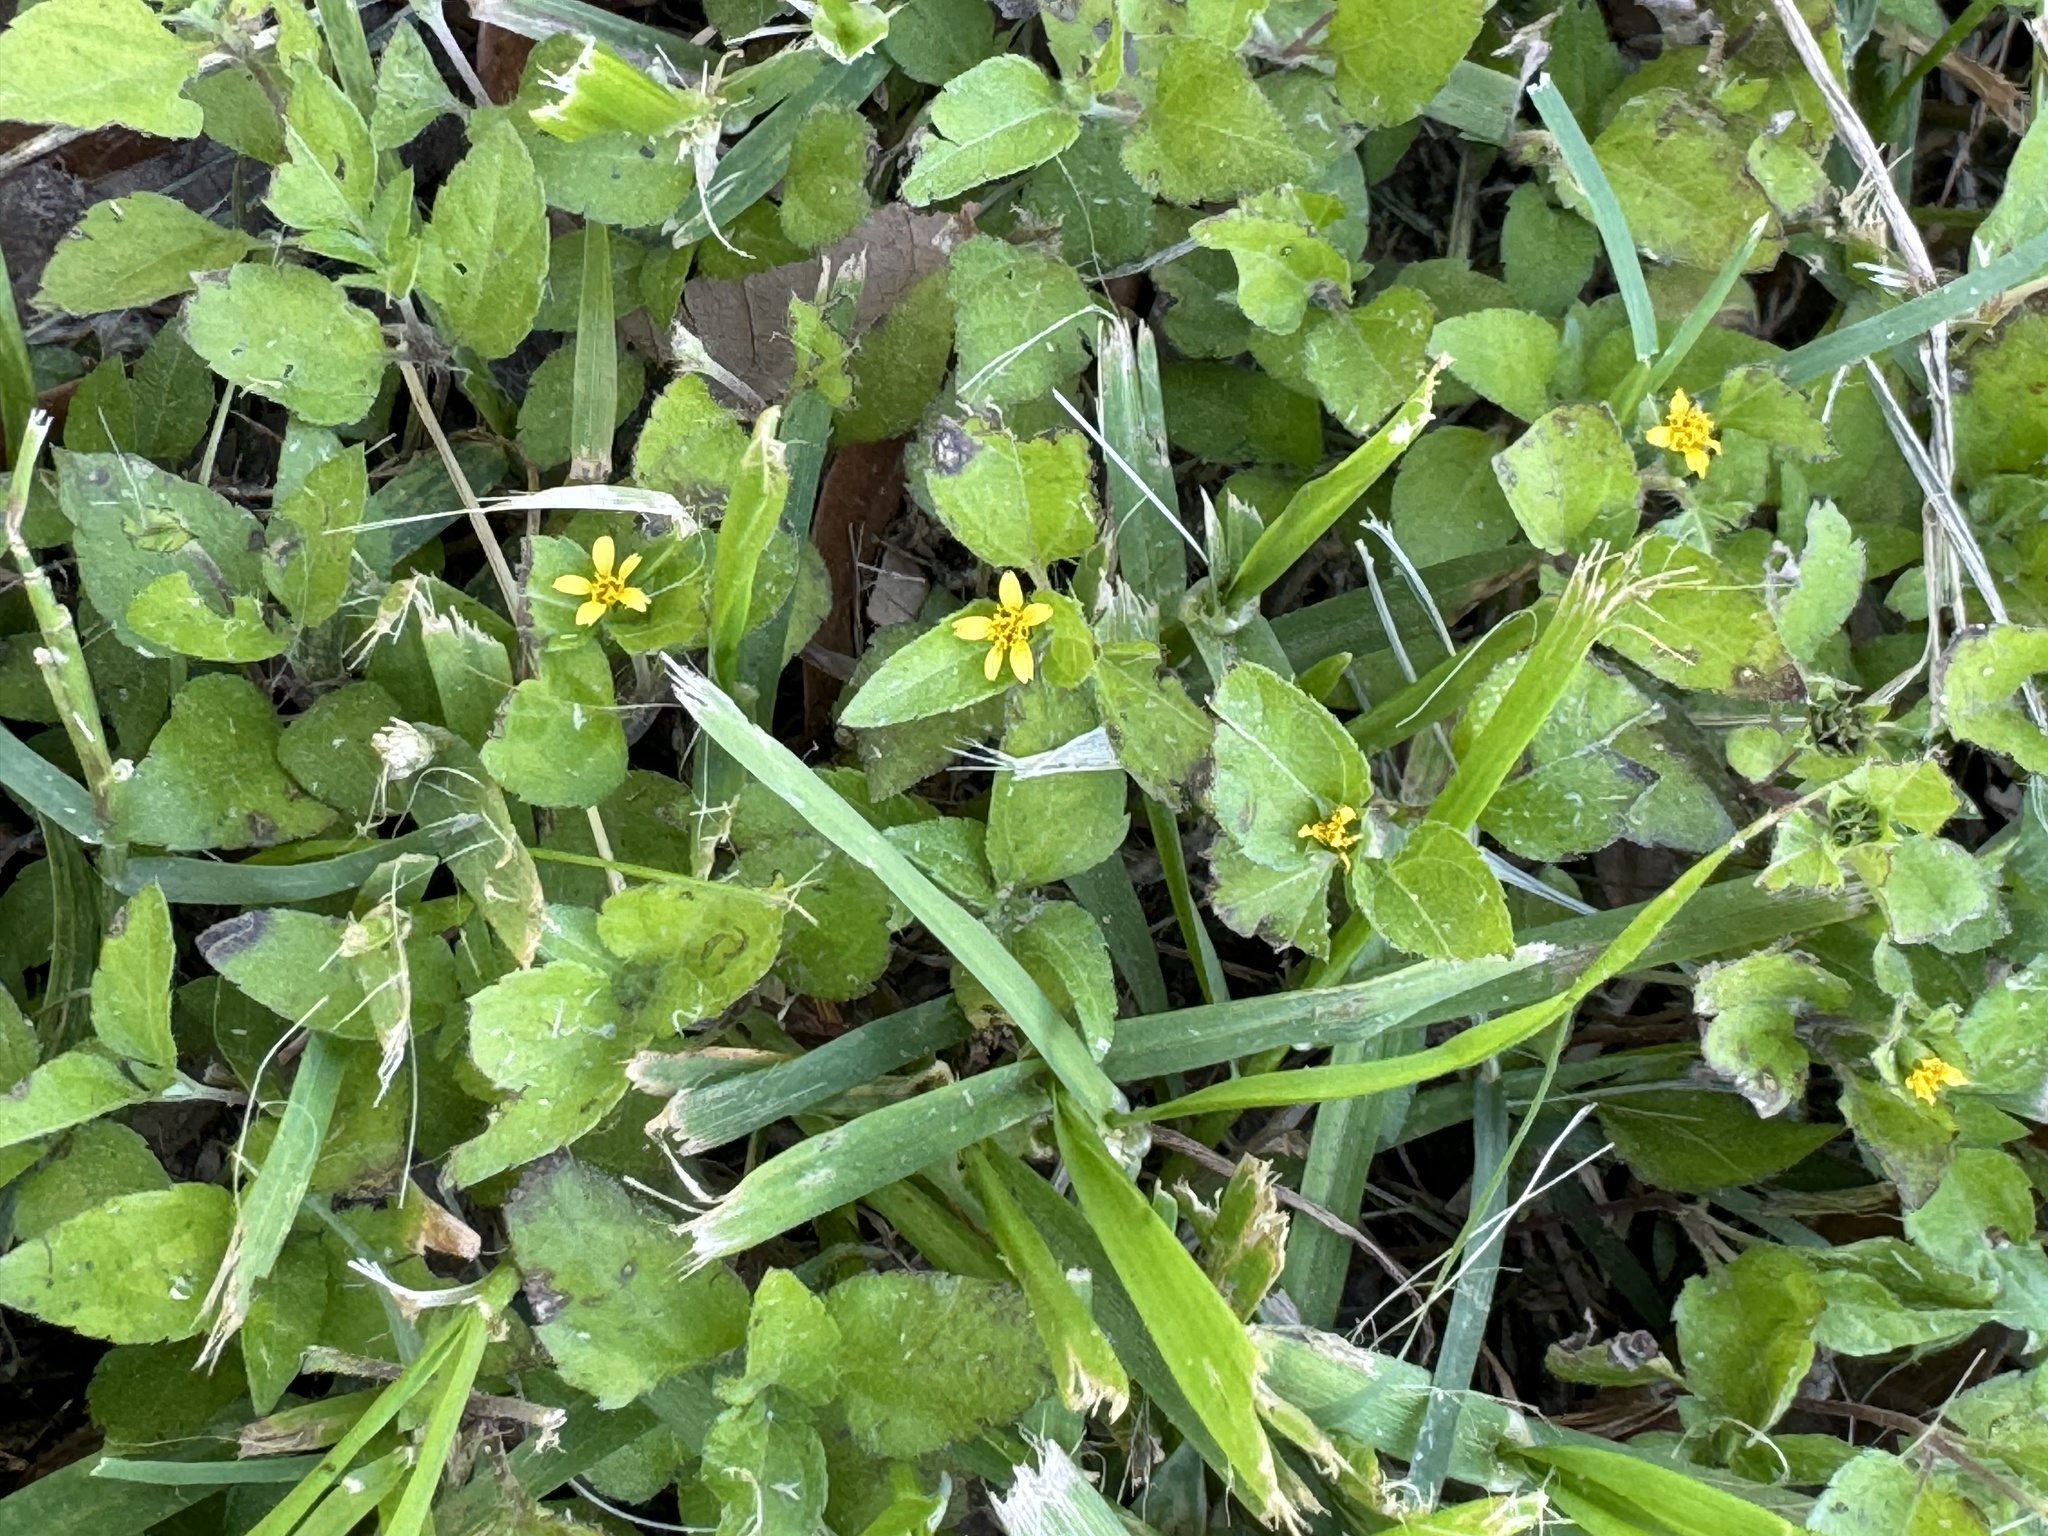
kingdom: Plantae
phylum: Tracheophyta
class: Magnoliopsida
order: Asterales
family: Asteraceae
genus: Calyptocarpus
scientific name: Calyptocarpus vialis
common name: Straggler daisy
